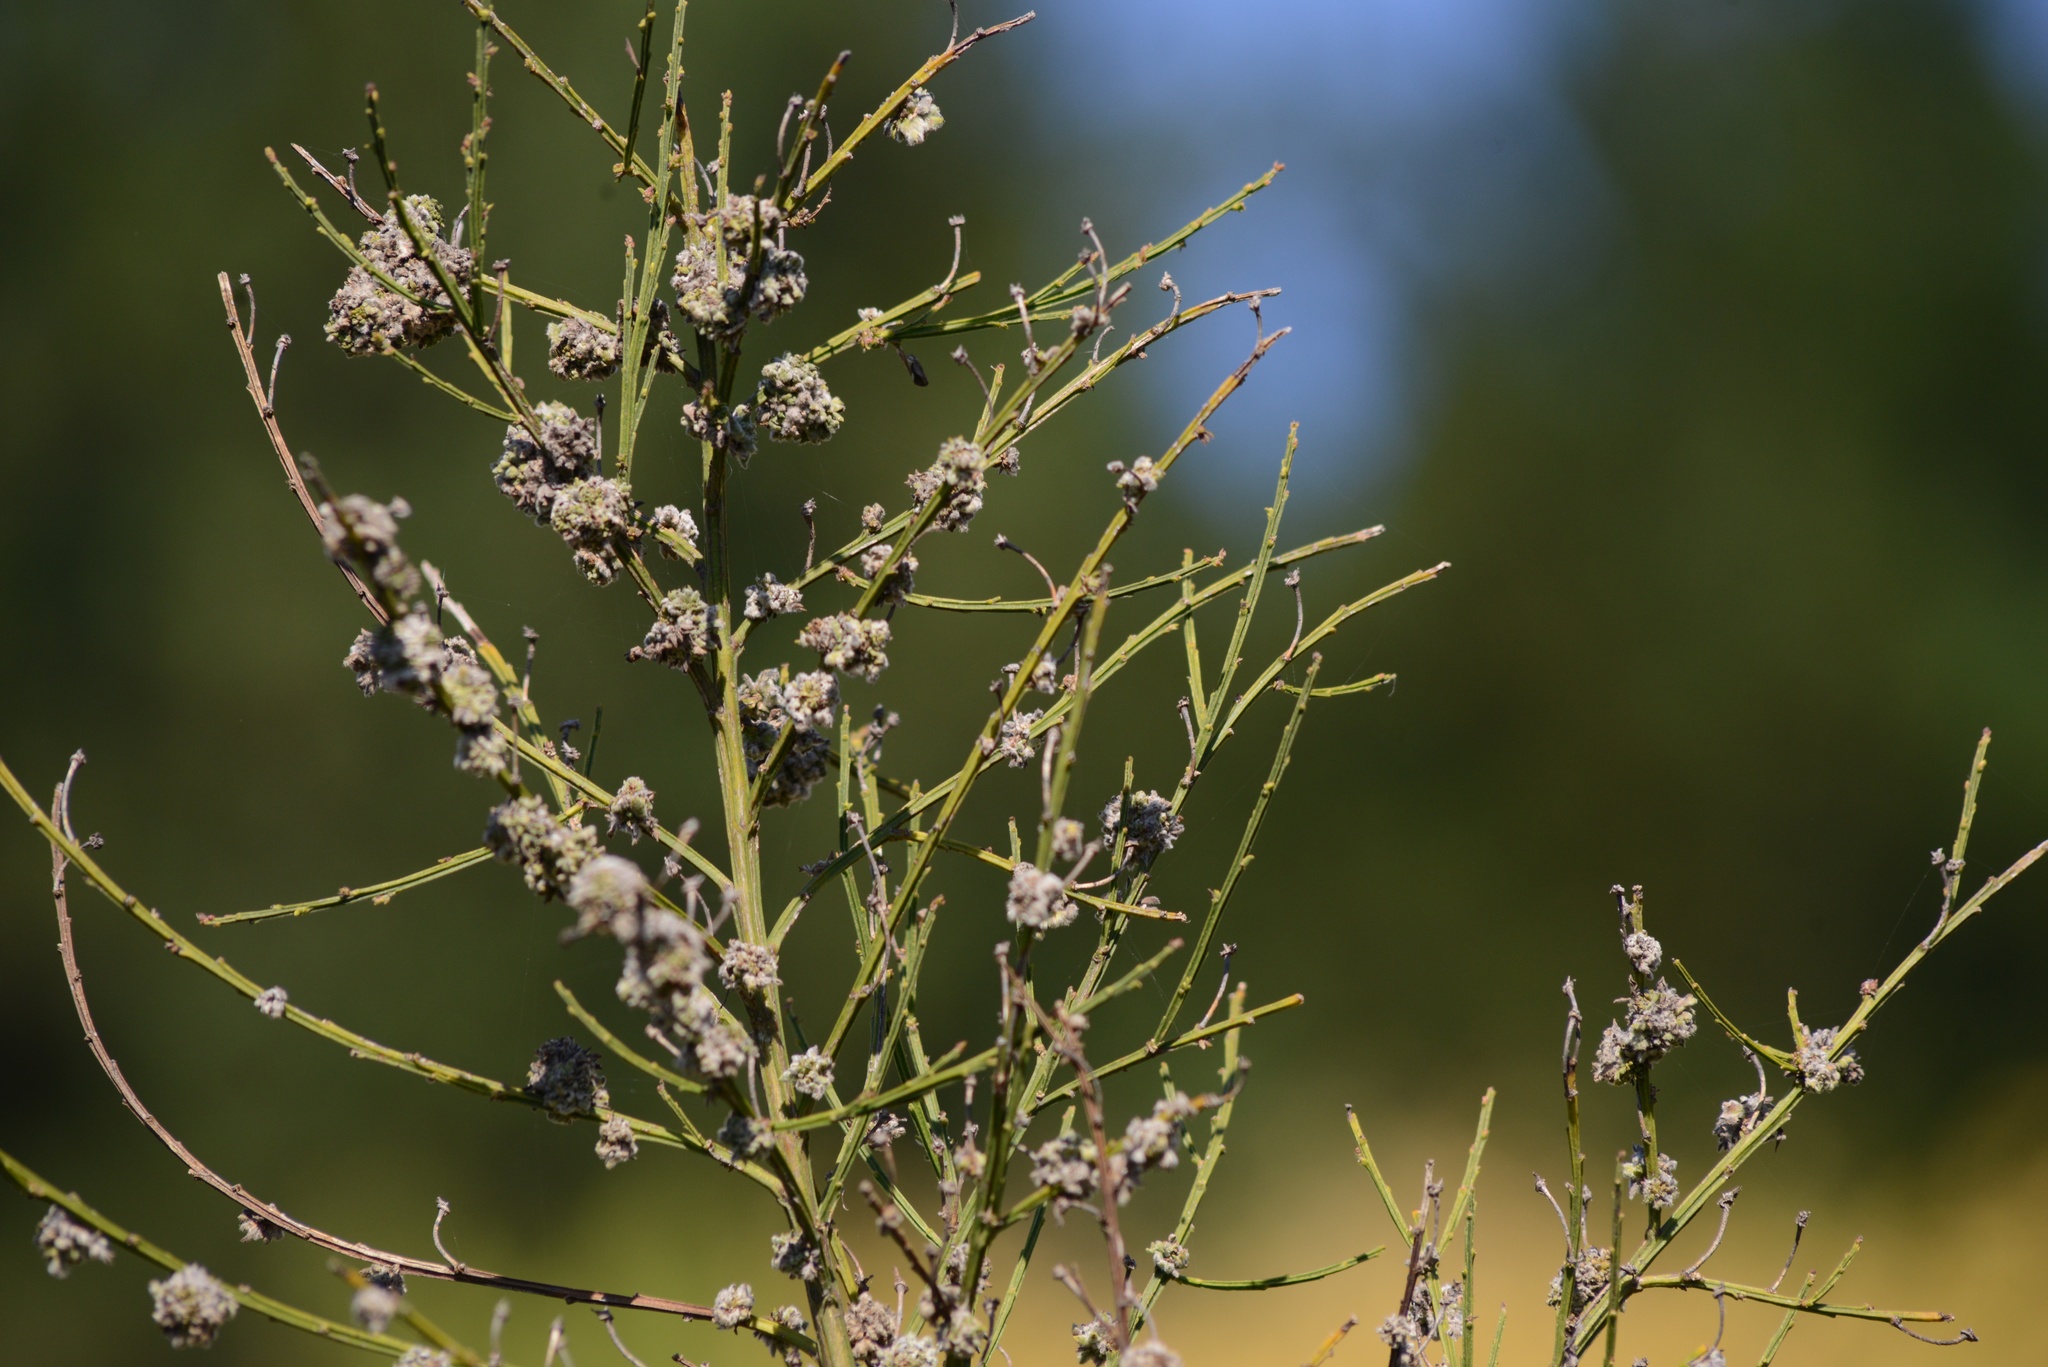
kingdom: Animalia
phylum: Arthropoda
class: Arachnida
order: Trombidiformes
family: Eriophyidae
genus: Aceria
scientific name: Aceria genistae
